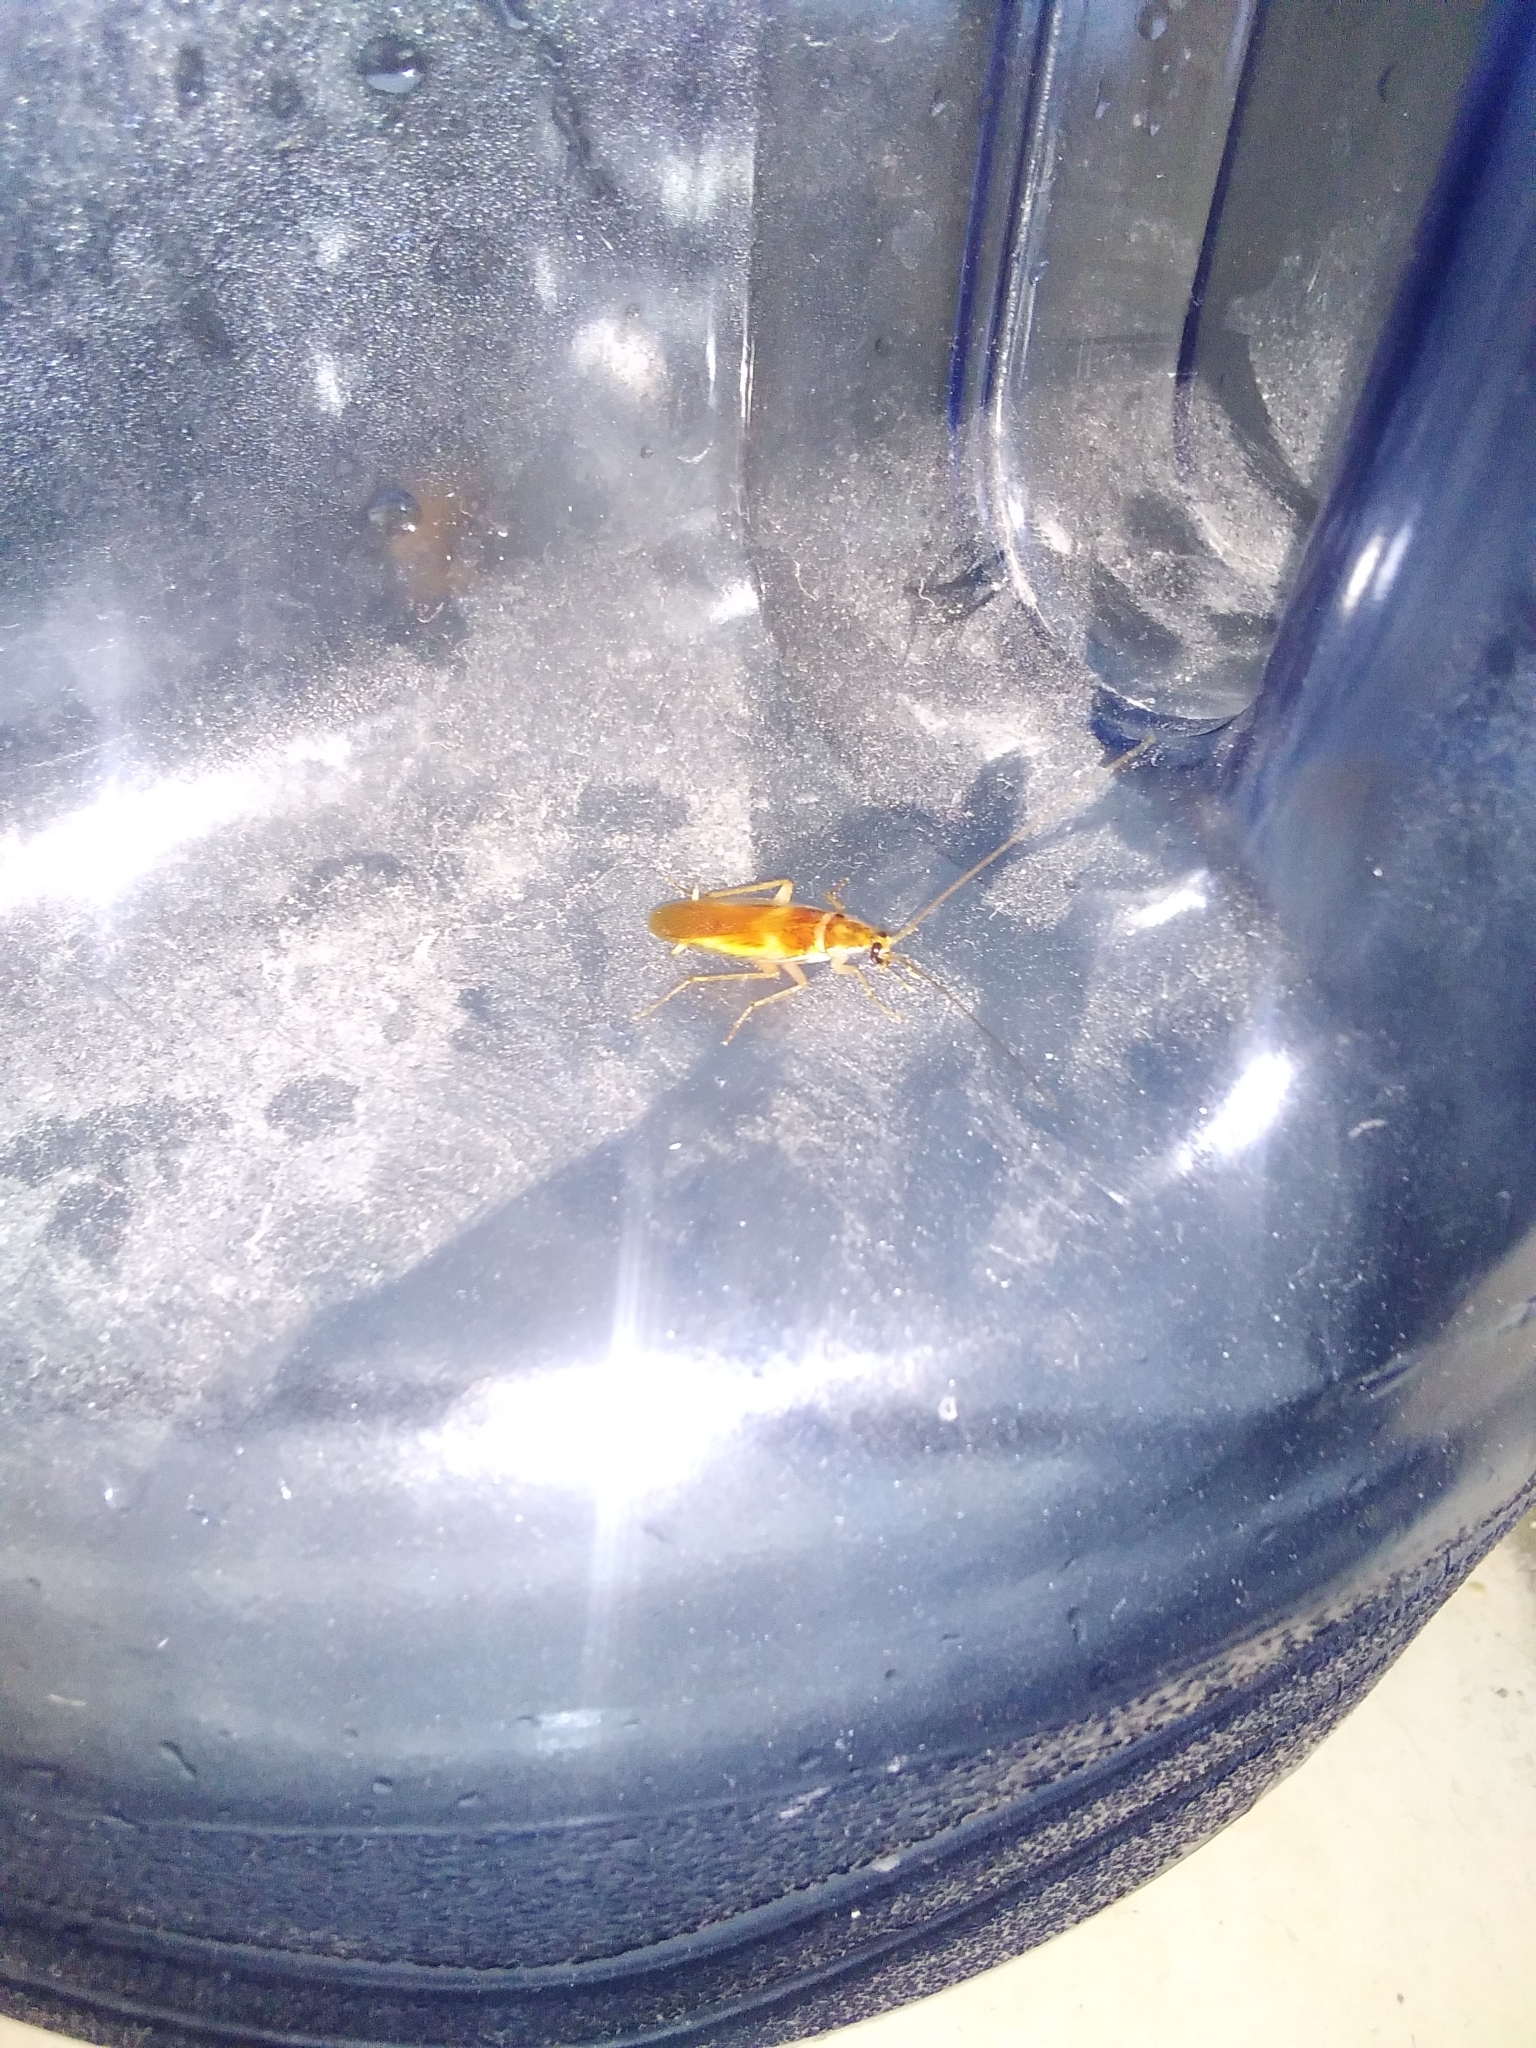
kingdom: Animalia
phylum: Arthropoda
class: Insecta
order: Blattodea
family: Ectobiidae
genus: Supella
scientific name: Supella longipalpa
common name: Brown-banded cockroach
